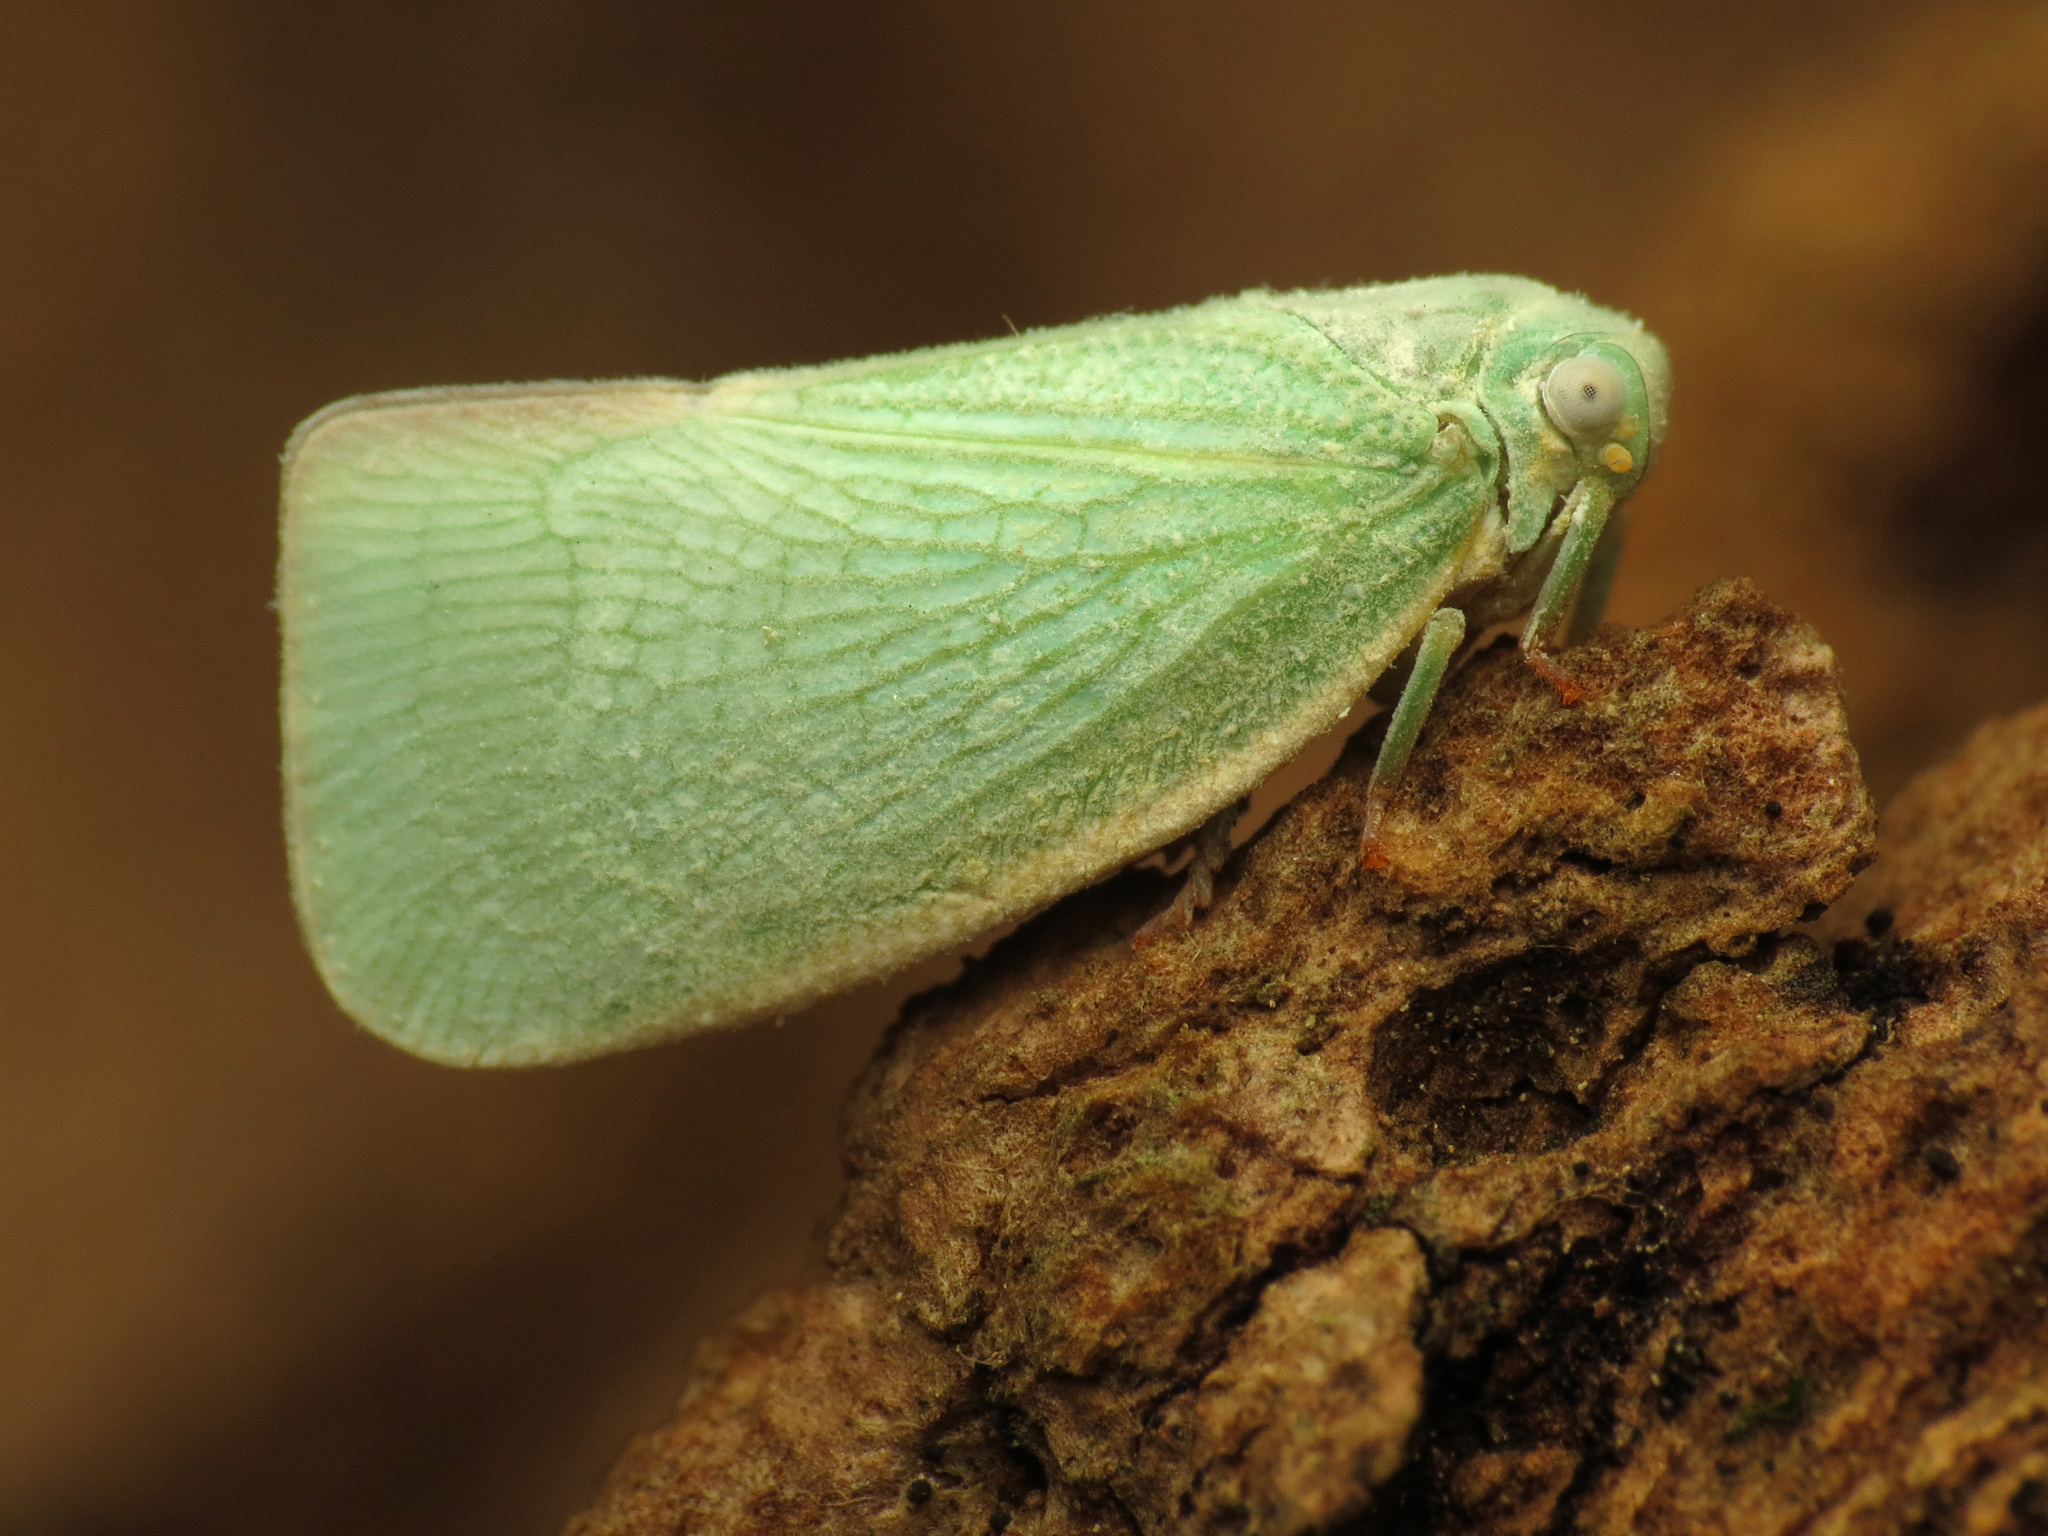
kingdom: Animalia
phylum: Arthropoda
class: Insecta
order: Hemiptera
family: Flatidae
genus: Flatormenis
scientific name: Flatormenis proxima
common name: Northern flatid planthopper
